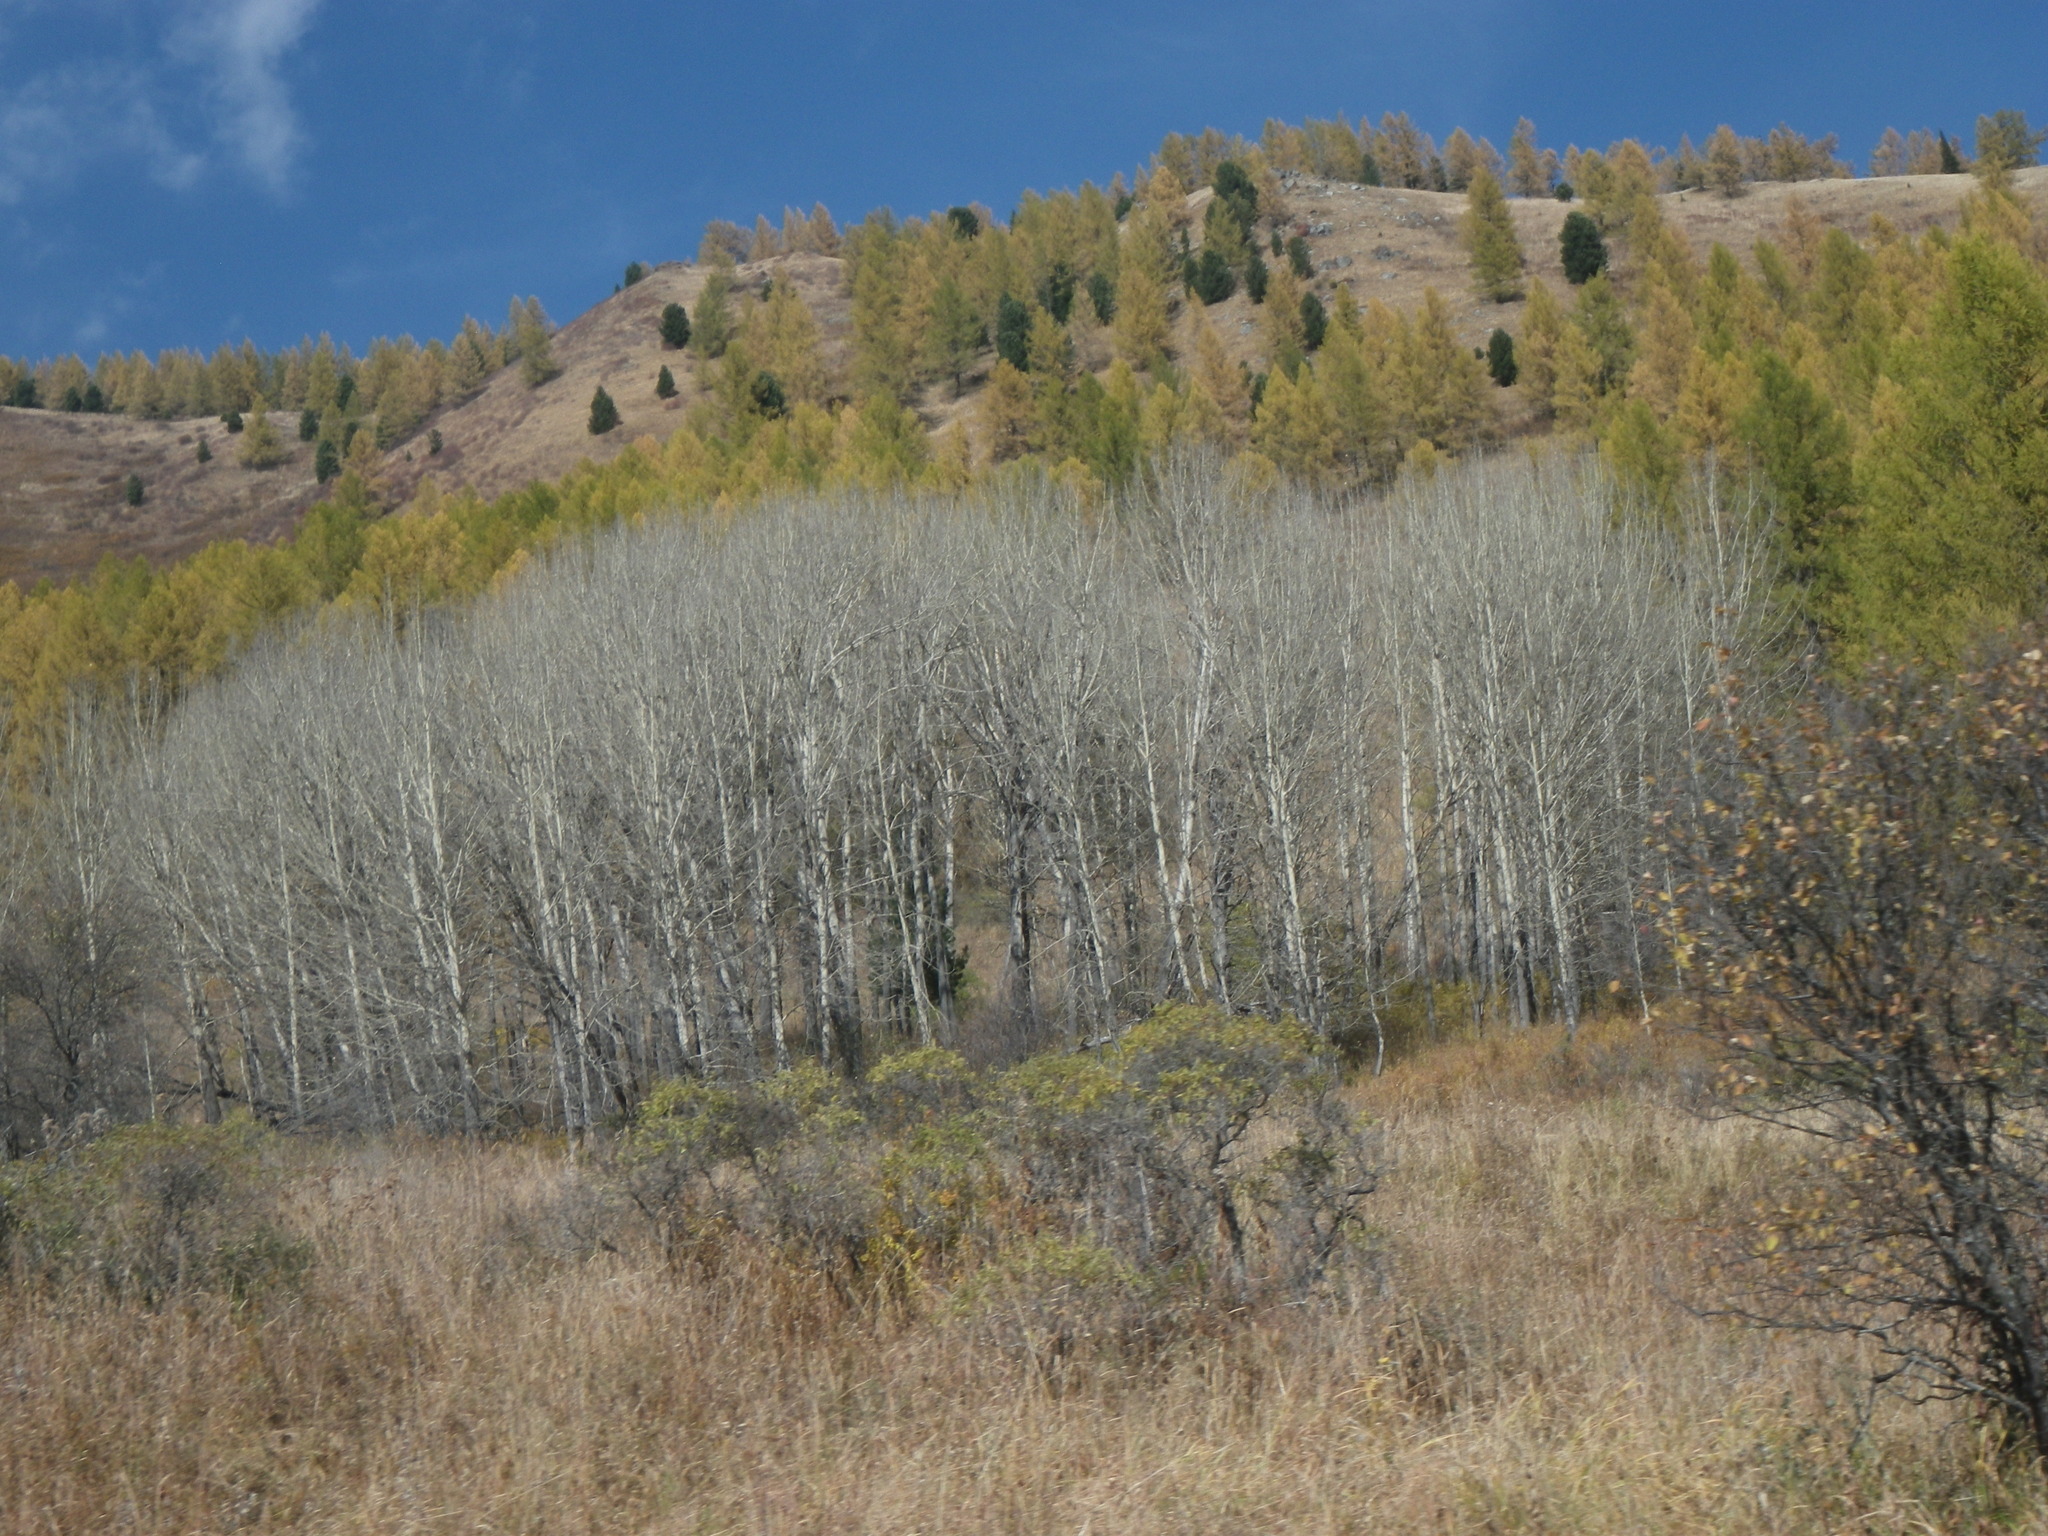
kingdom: Plantae
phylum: Tracheophyta
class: Magnoliopsida
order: Malpighiales
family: Salicaceae
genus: Populus
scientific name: Populus tremula
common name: European aspen
